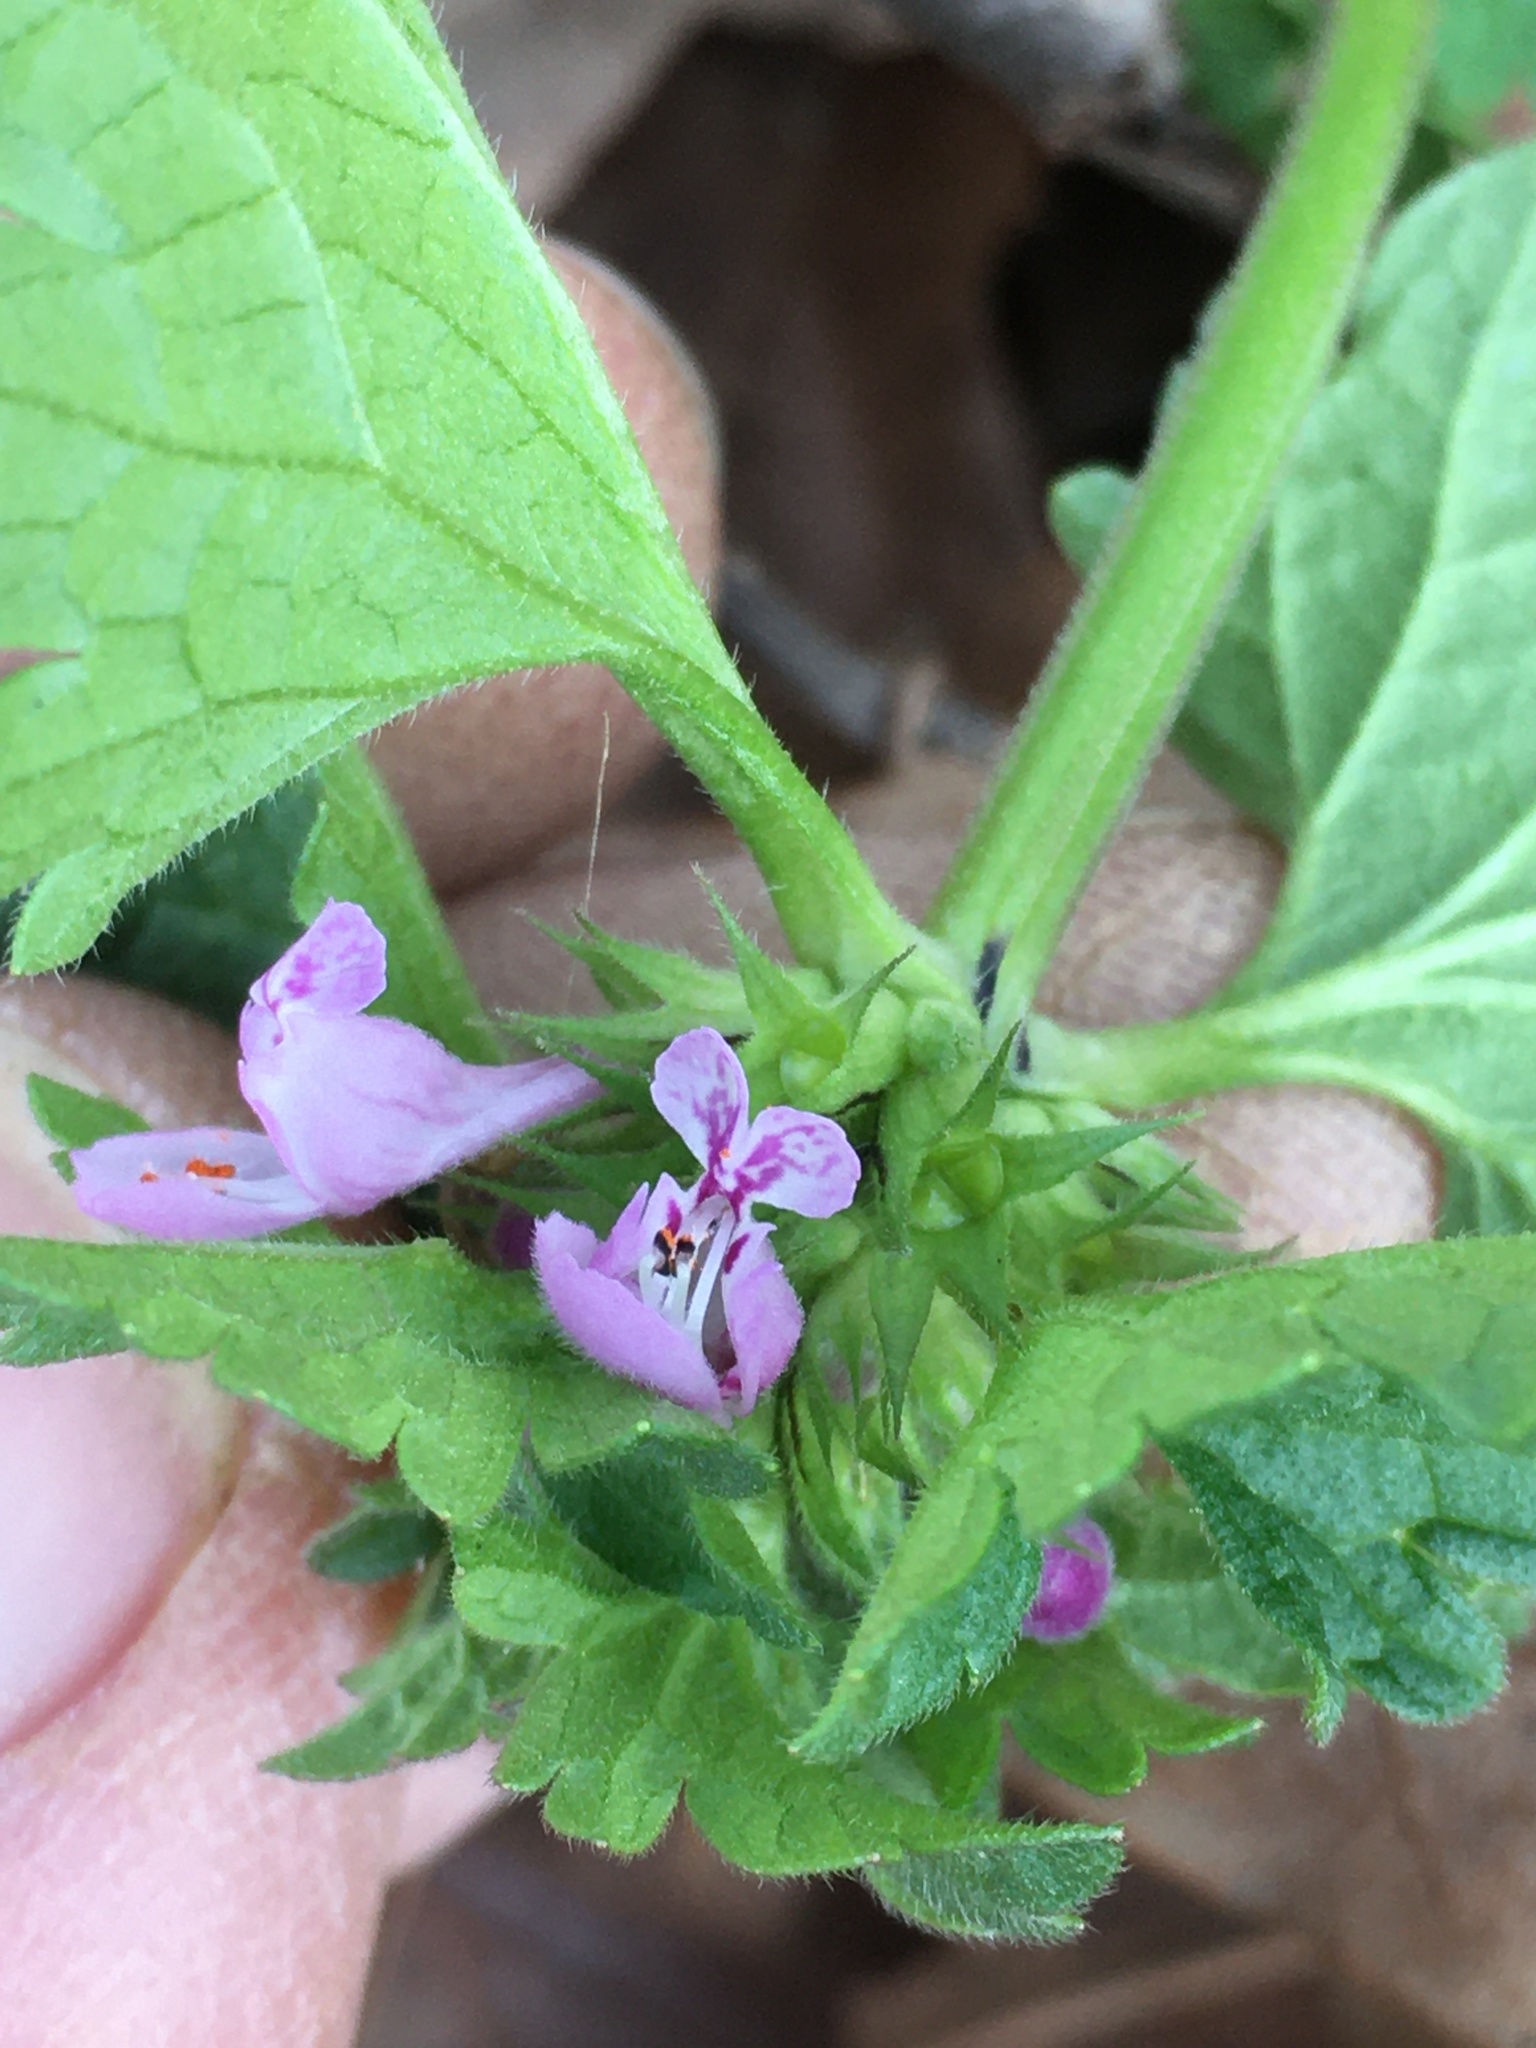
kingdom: Plantae
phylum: Tracheophyta
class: Magnoliopsida
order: Lamiales
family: Lamiaceae
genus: Lamium
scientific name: Lamium amplexicaule
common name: Henbit dead-nettle
